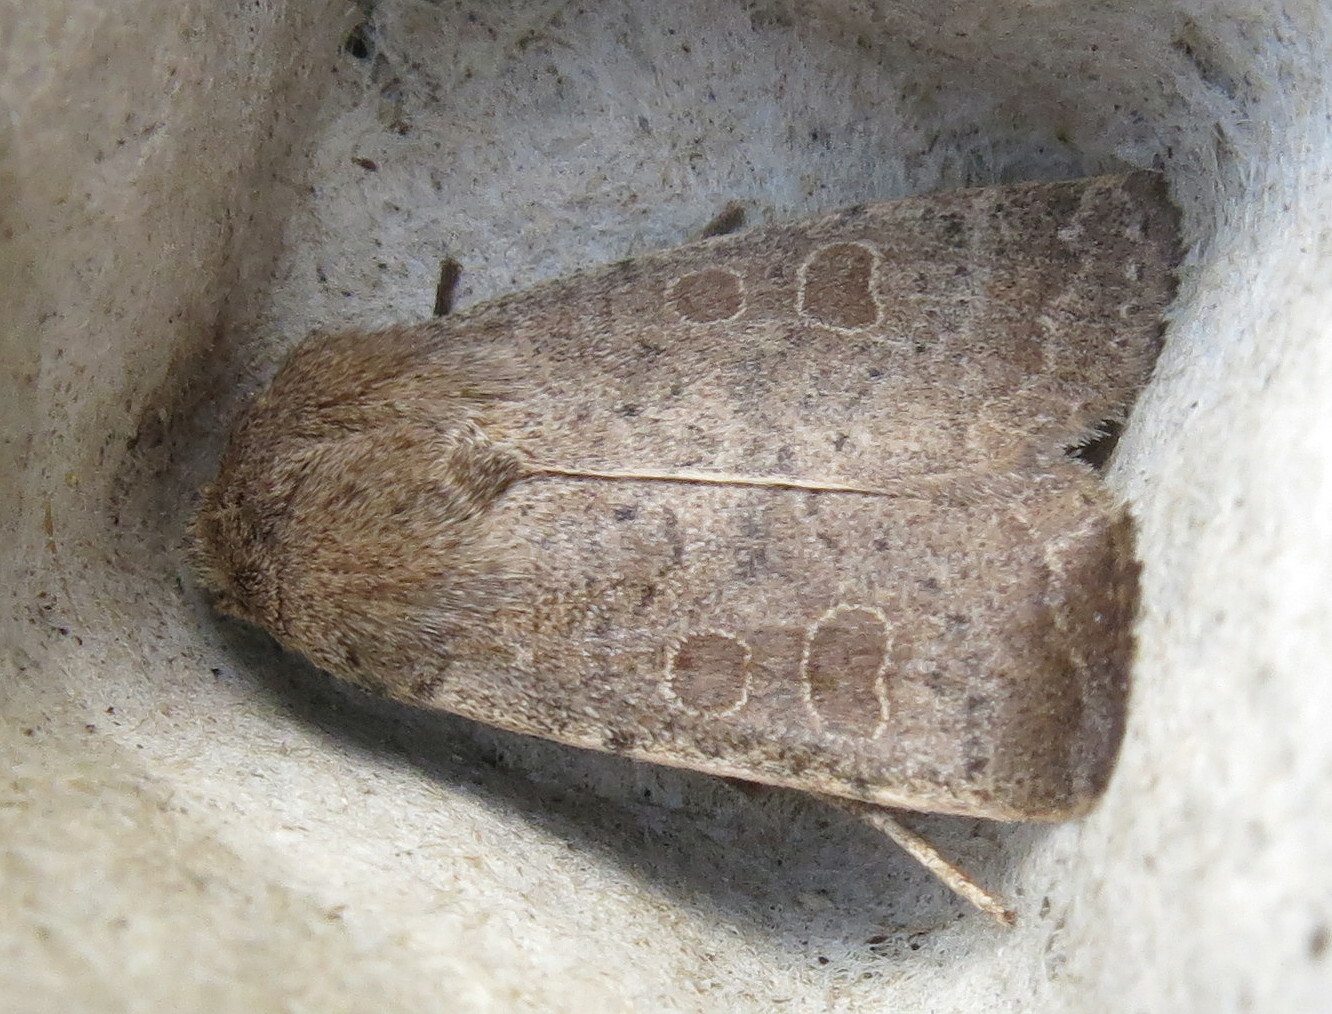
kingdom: Animalia
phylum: Arthropoda
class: Insecta
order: Lepidoptera
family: Noctuidae
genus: Hoplodrina
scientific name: Hoplodrina ambigua
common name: Vine's rustic
